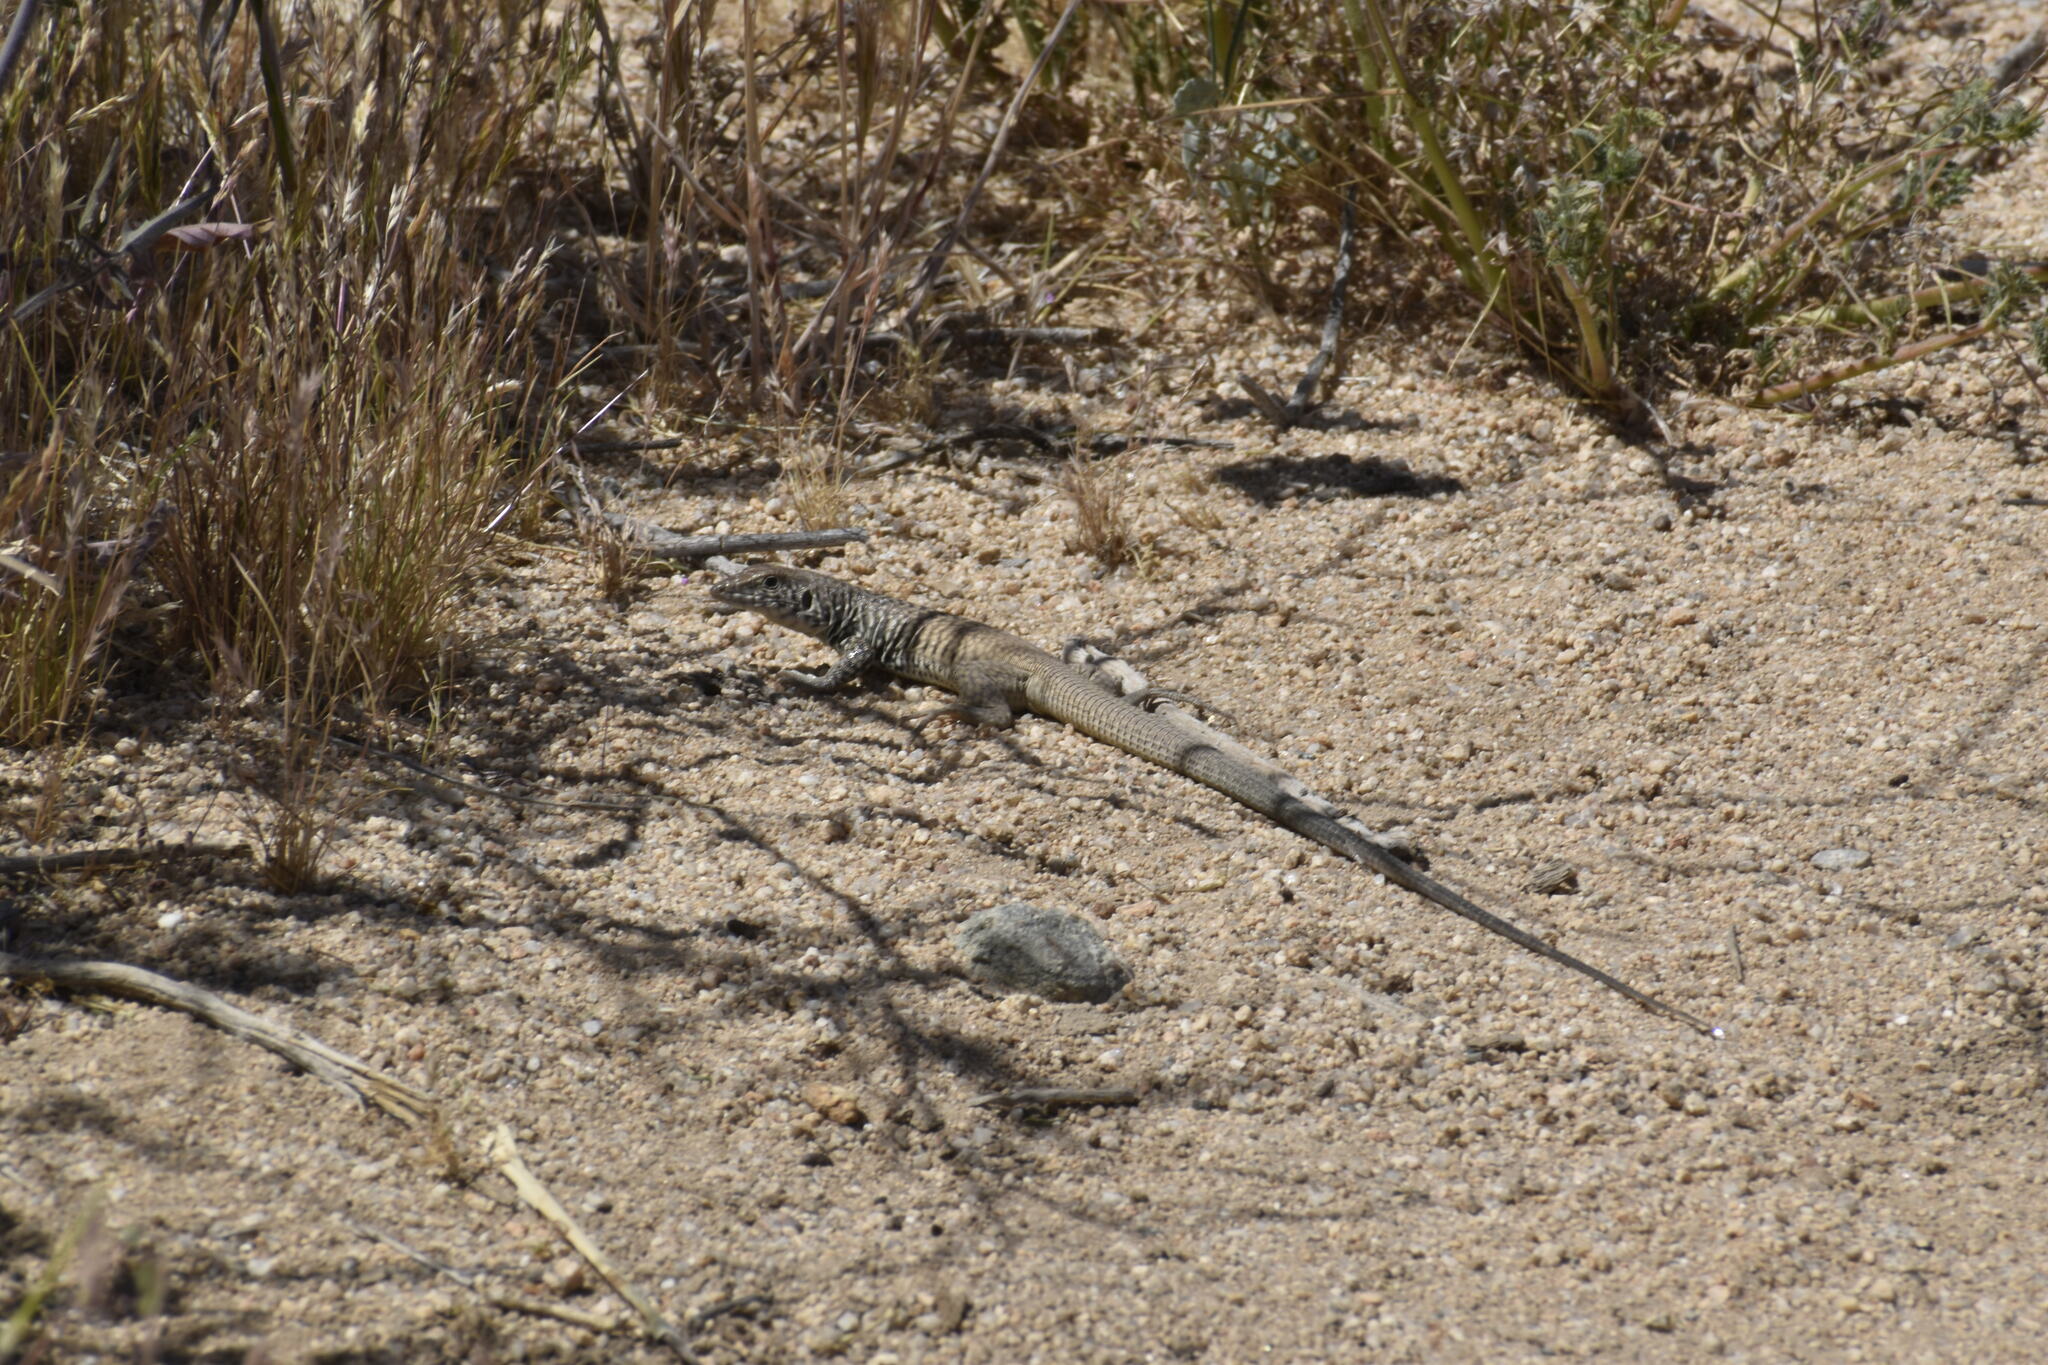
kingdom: Animalia
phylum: Chordata
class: Squamata
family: Teiidae
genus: Aspidoscelis
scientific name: Aspidoscelis tigris
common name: Tiger whiptail
